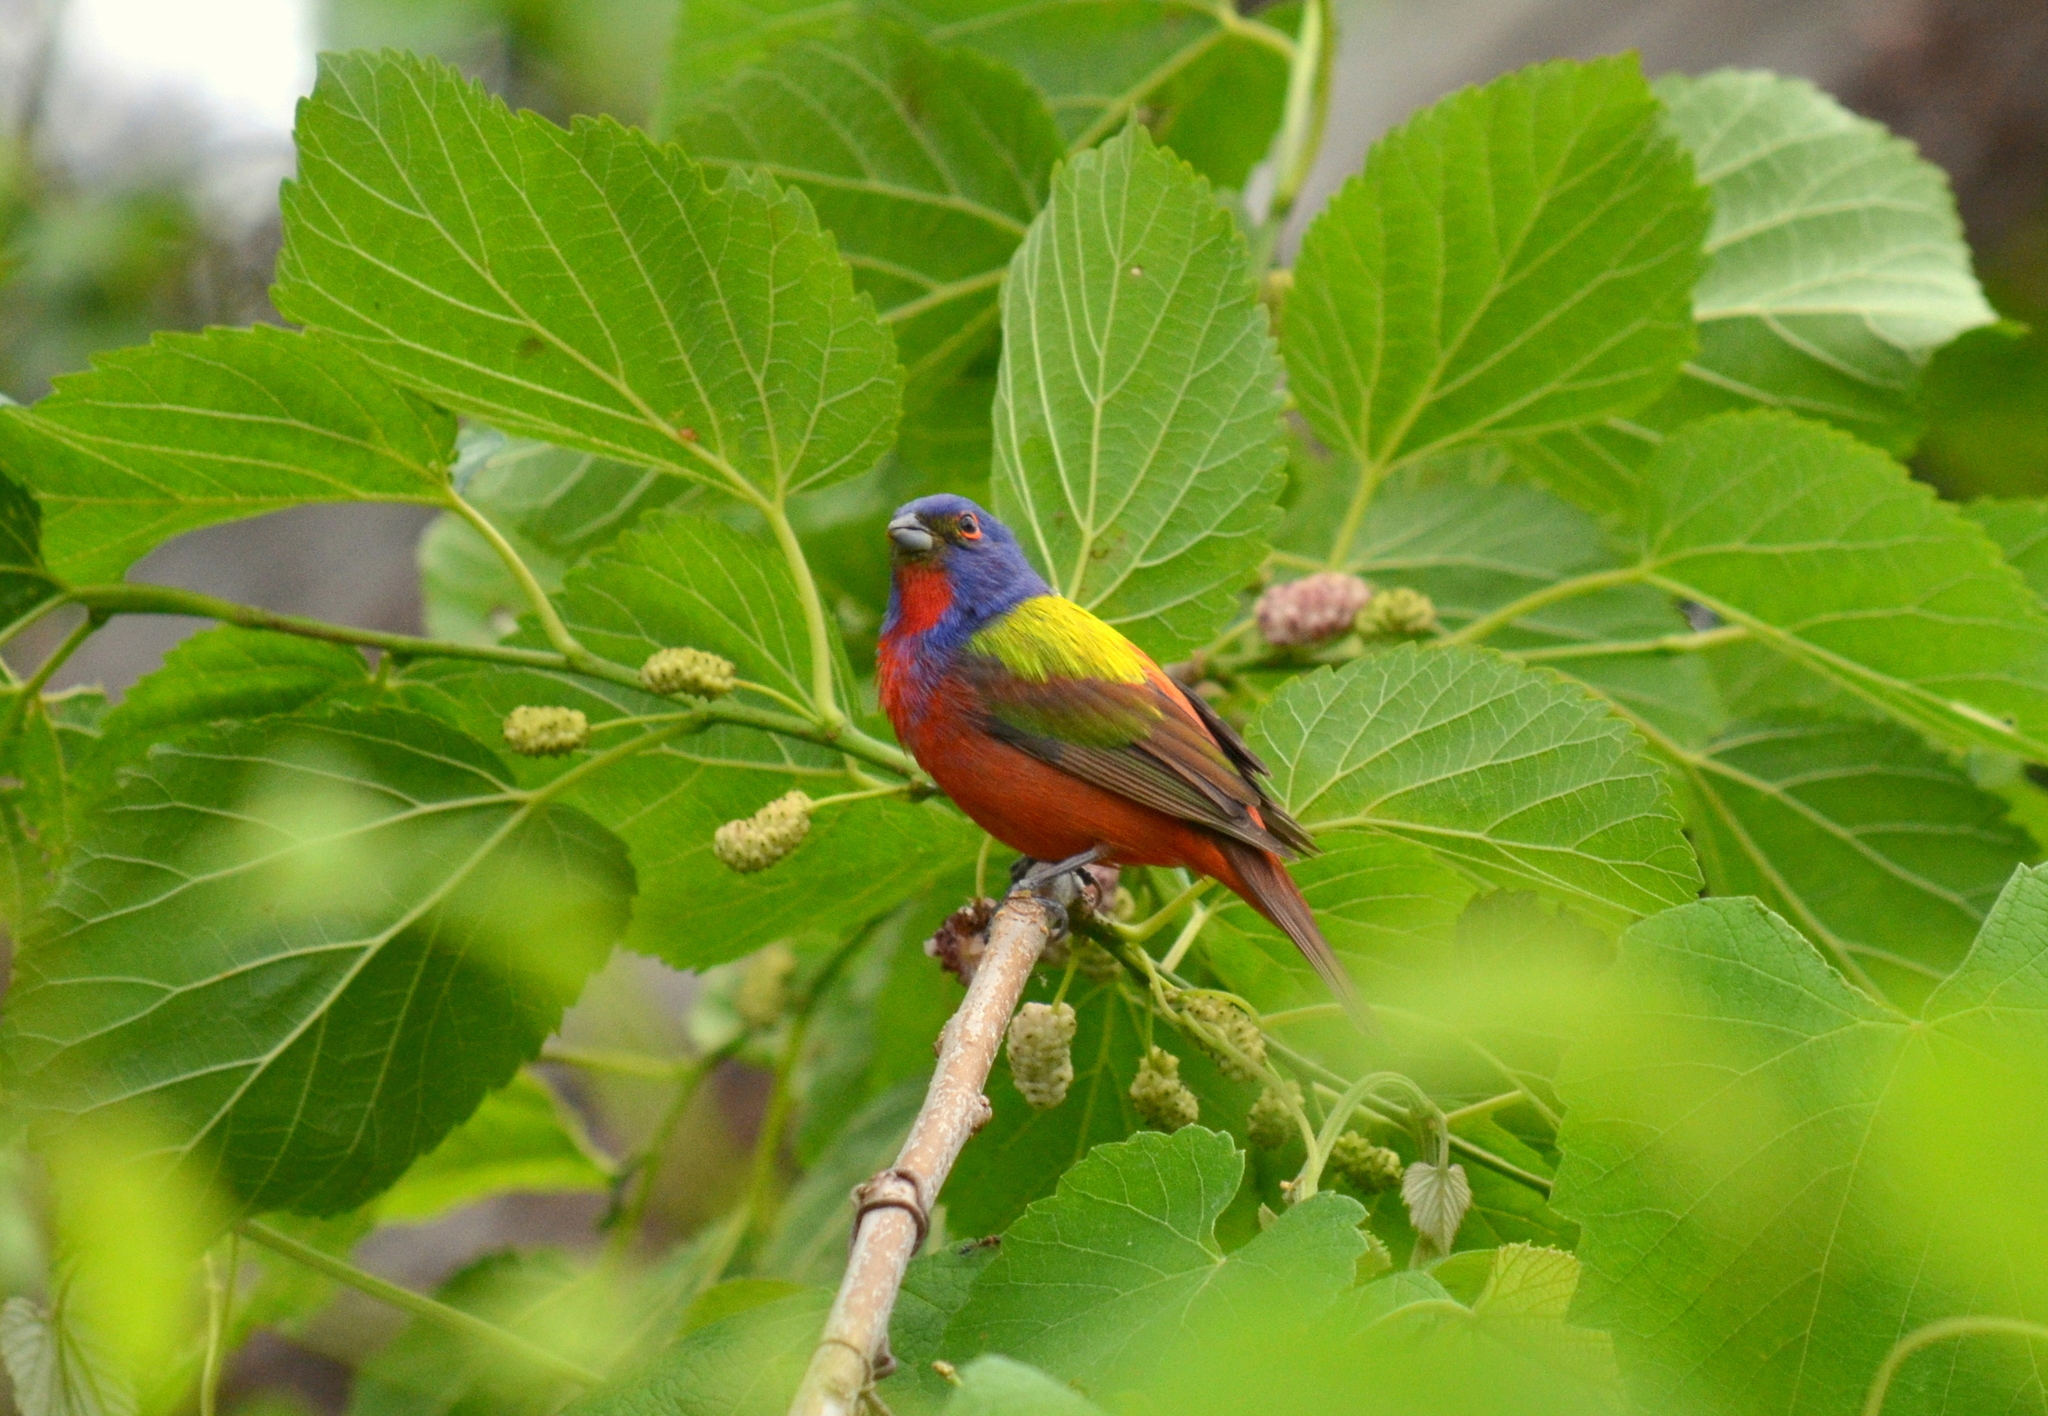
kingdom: Animalia
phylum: Chordata
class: Aves
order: Passeriformes
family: Cardinalidae
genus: Passerina
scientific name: Passerina ciris
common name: Painted bunting
